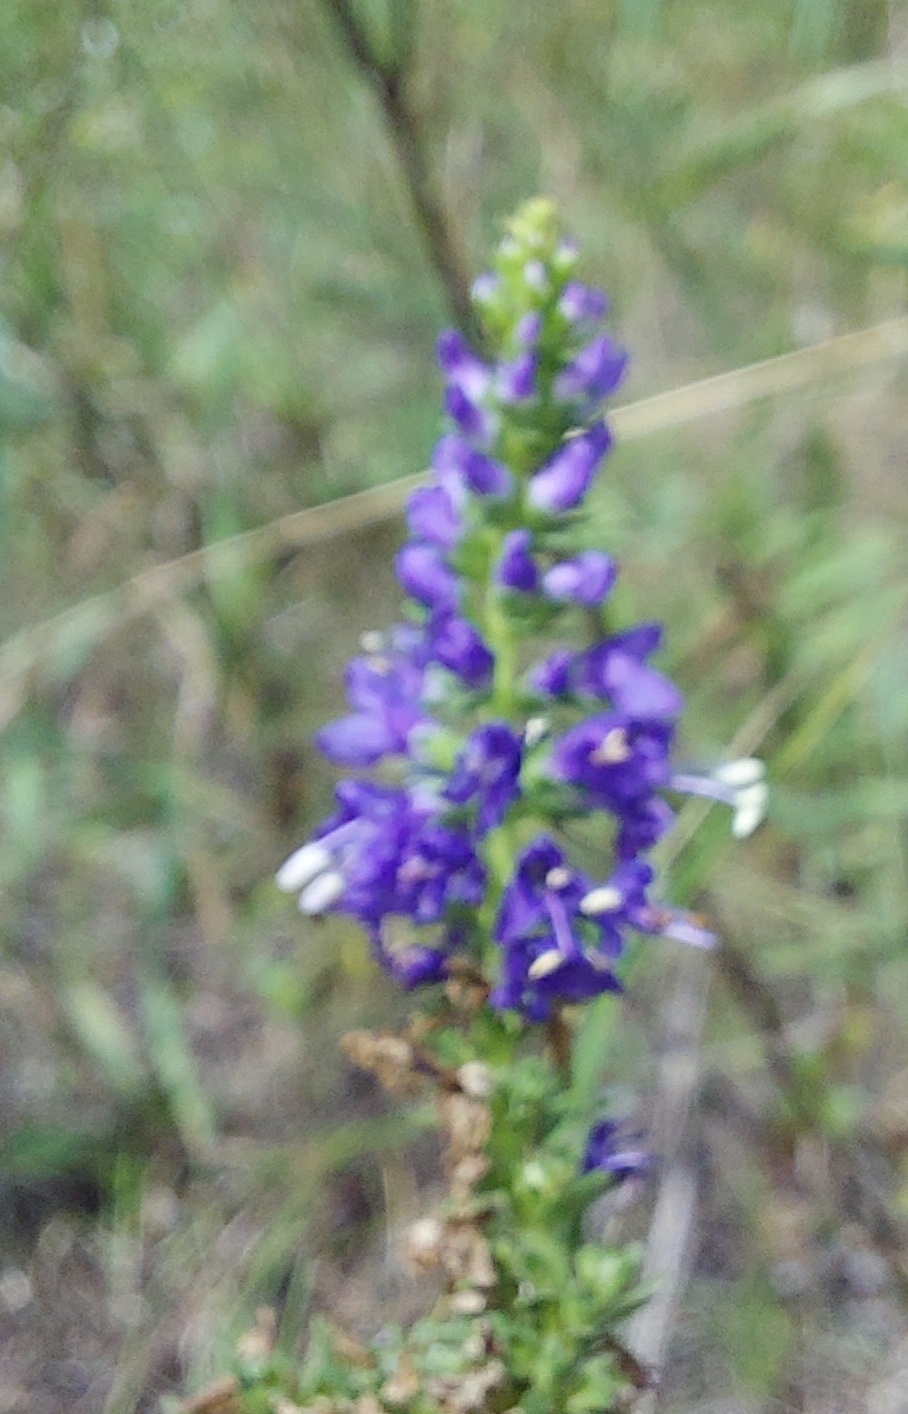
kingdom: Plantae
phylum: Tracheophyta
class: Magnoliopsida
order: Lamiales
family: Plantaginaceae
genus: Veronica
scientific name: Veronica spicata
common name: Spiked speedwell
